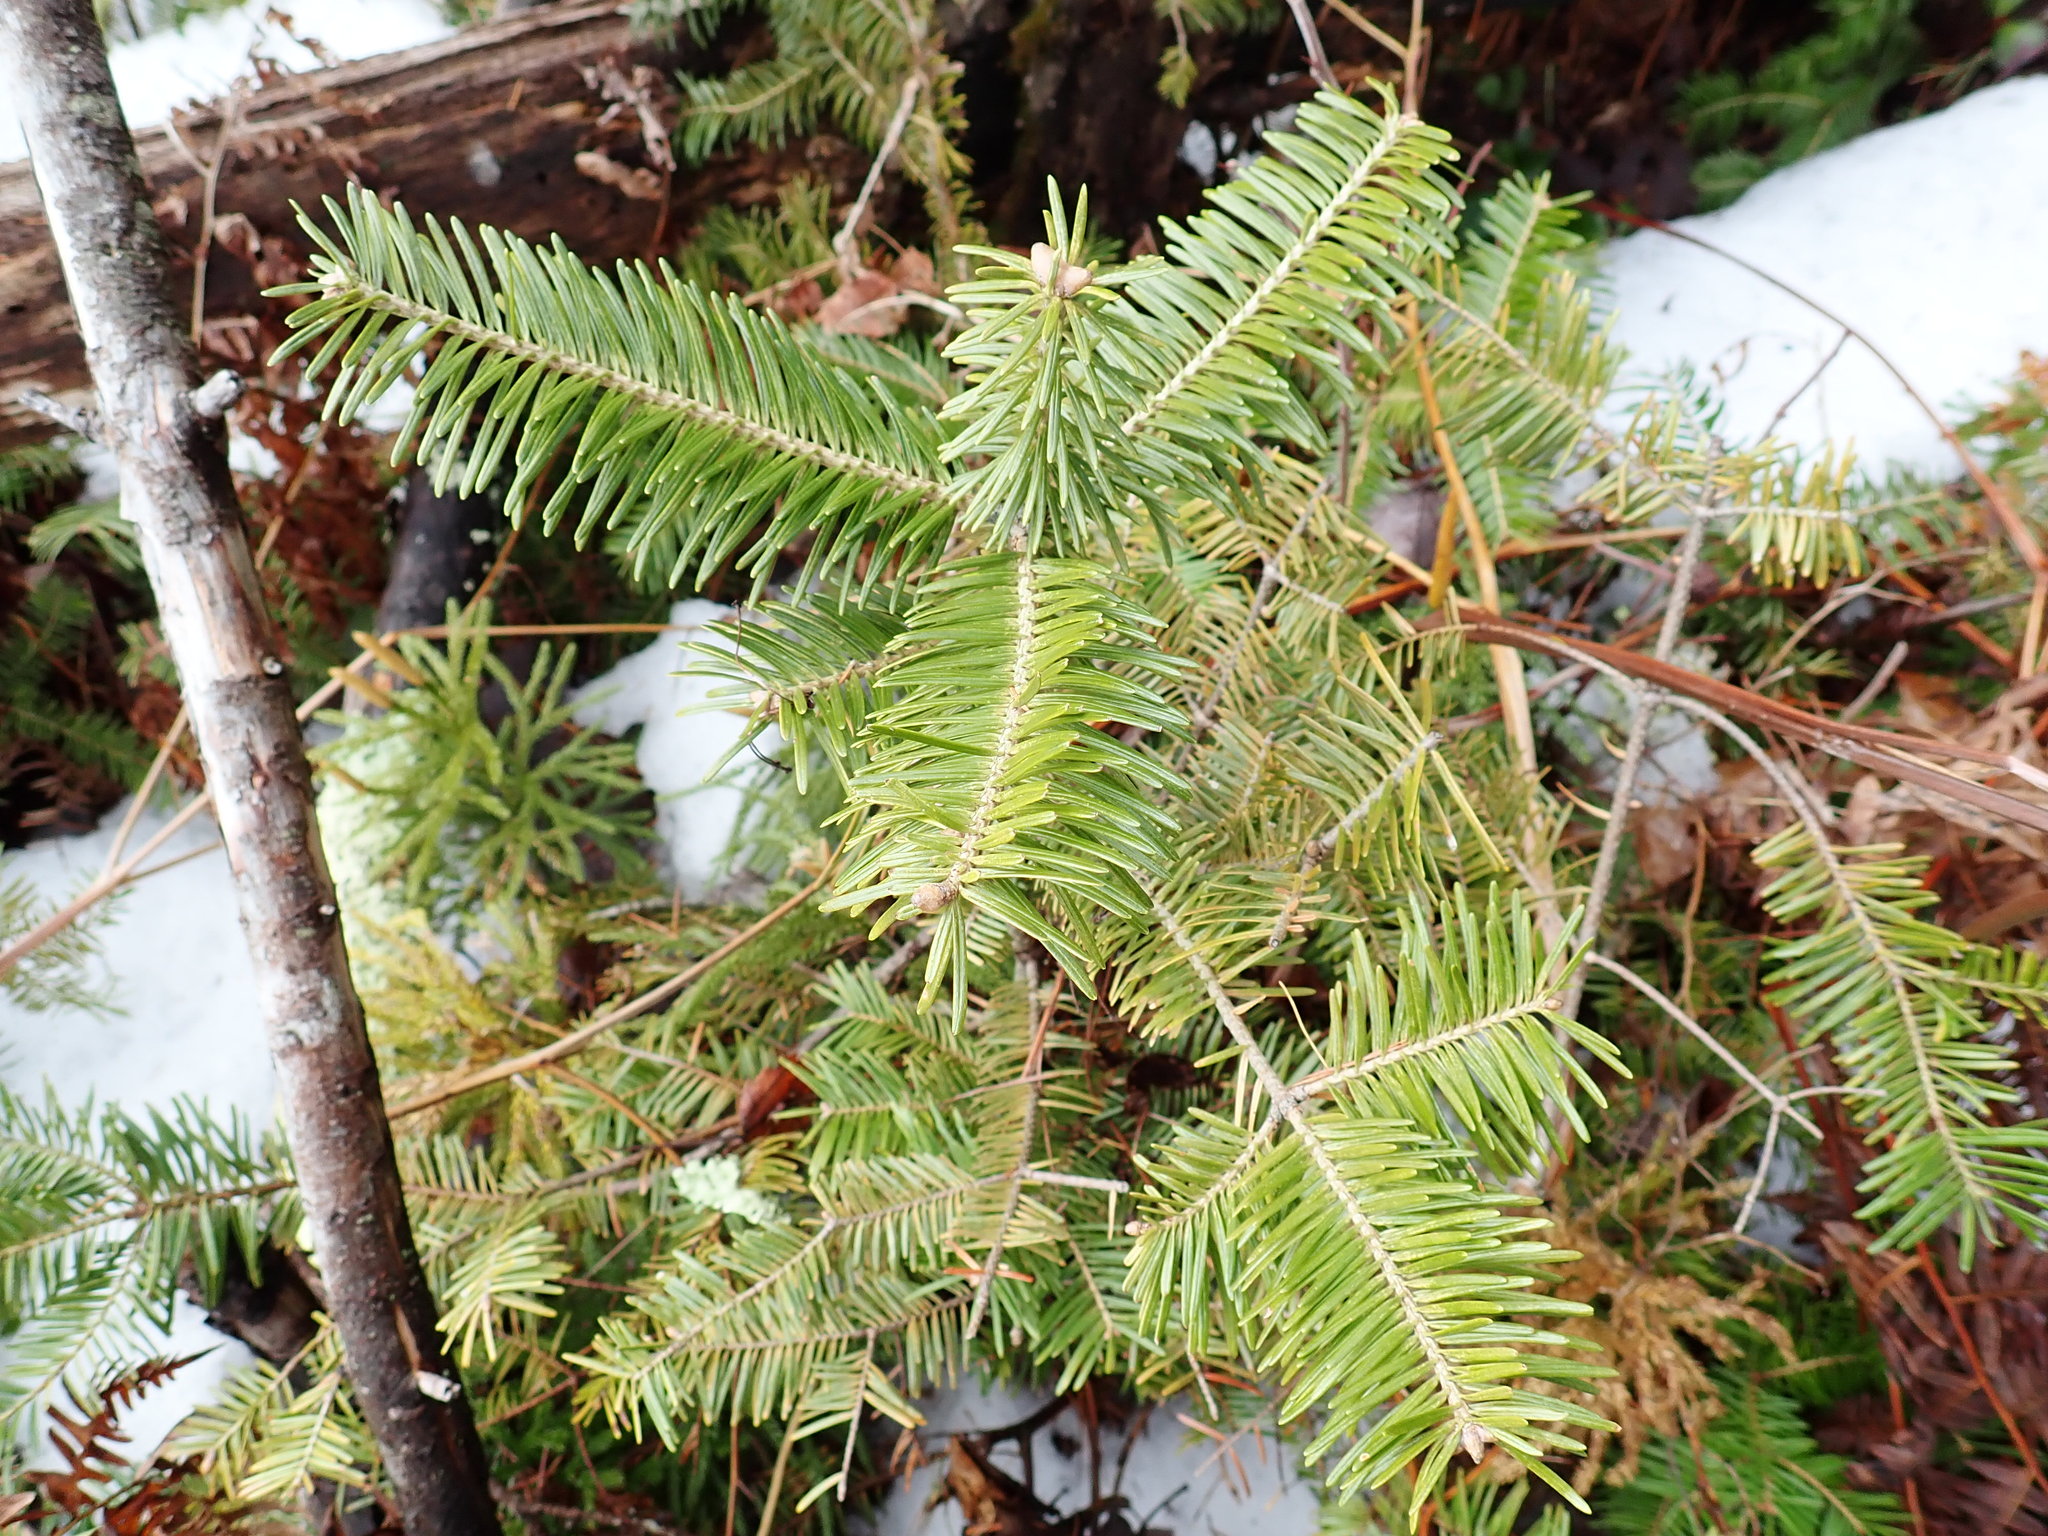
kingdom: Plantae
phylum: Tracheophyta
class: Pinopsida
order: Pinales
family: Pinaceae
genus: Abies
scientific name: Abies balsamea
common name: Balsam fir
